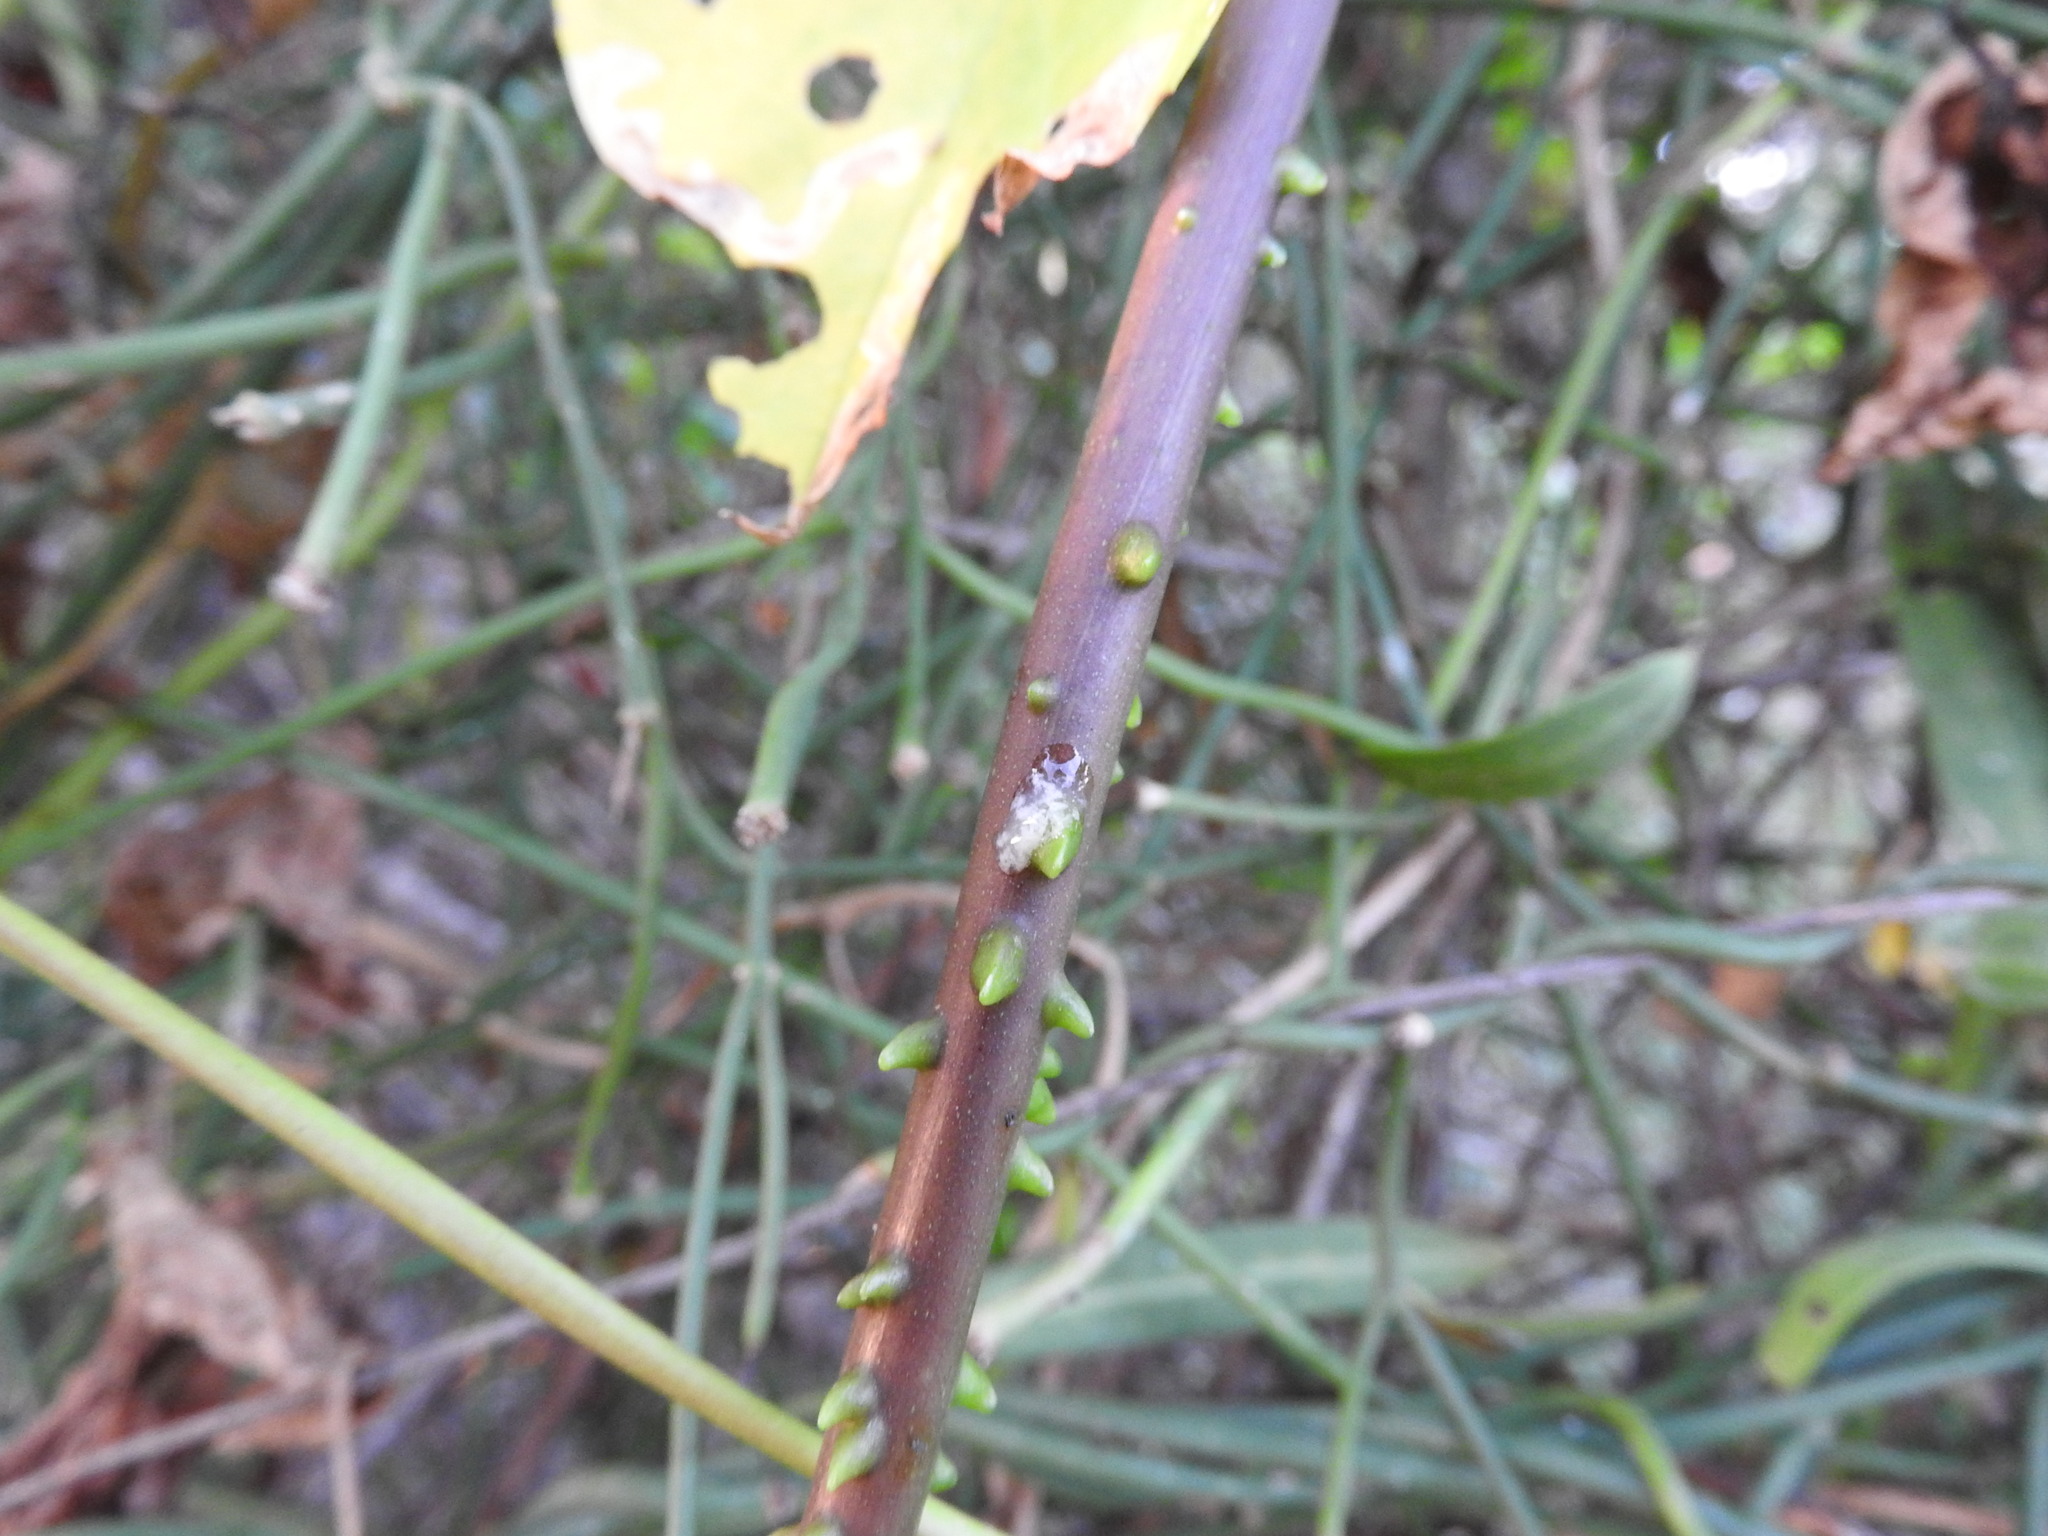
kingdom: Plantae
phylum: Tracheophyta
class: Magnoliopsida
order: Solanales
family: Convolvulaceae
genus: Ipomoea
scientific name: Ipomoea alba
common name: Moonflower
